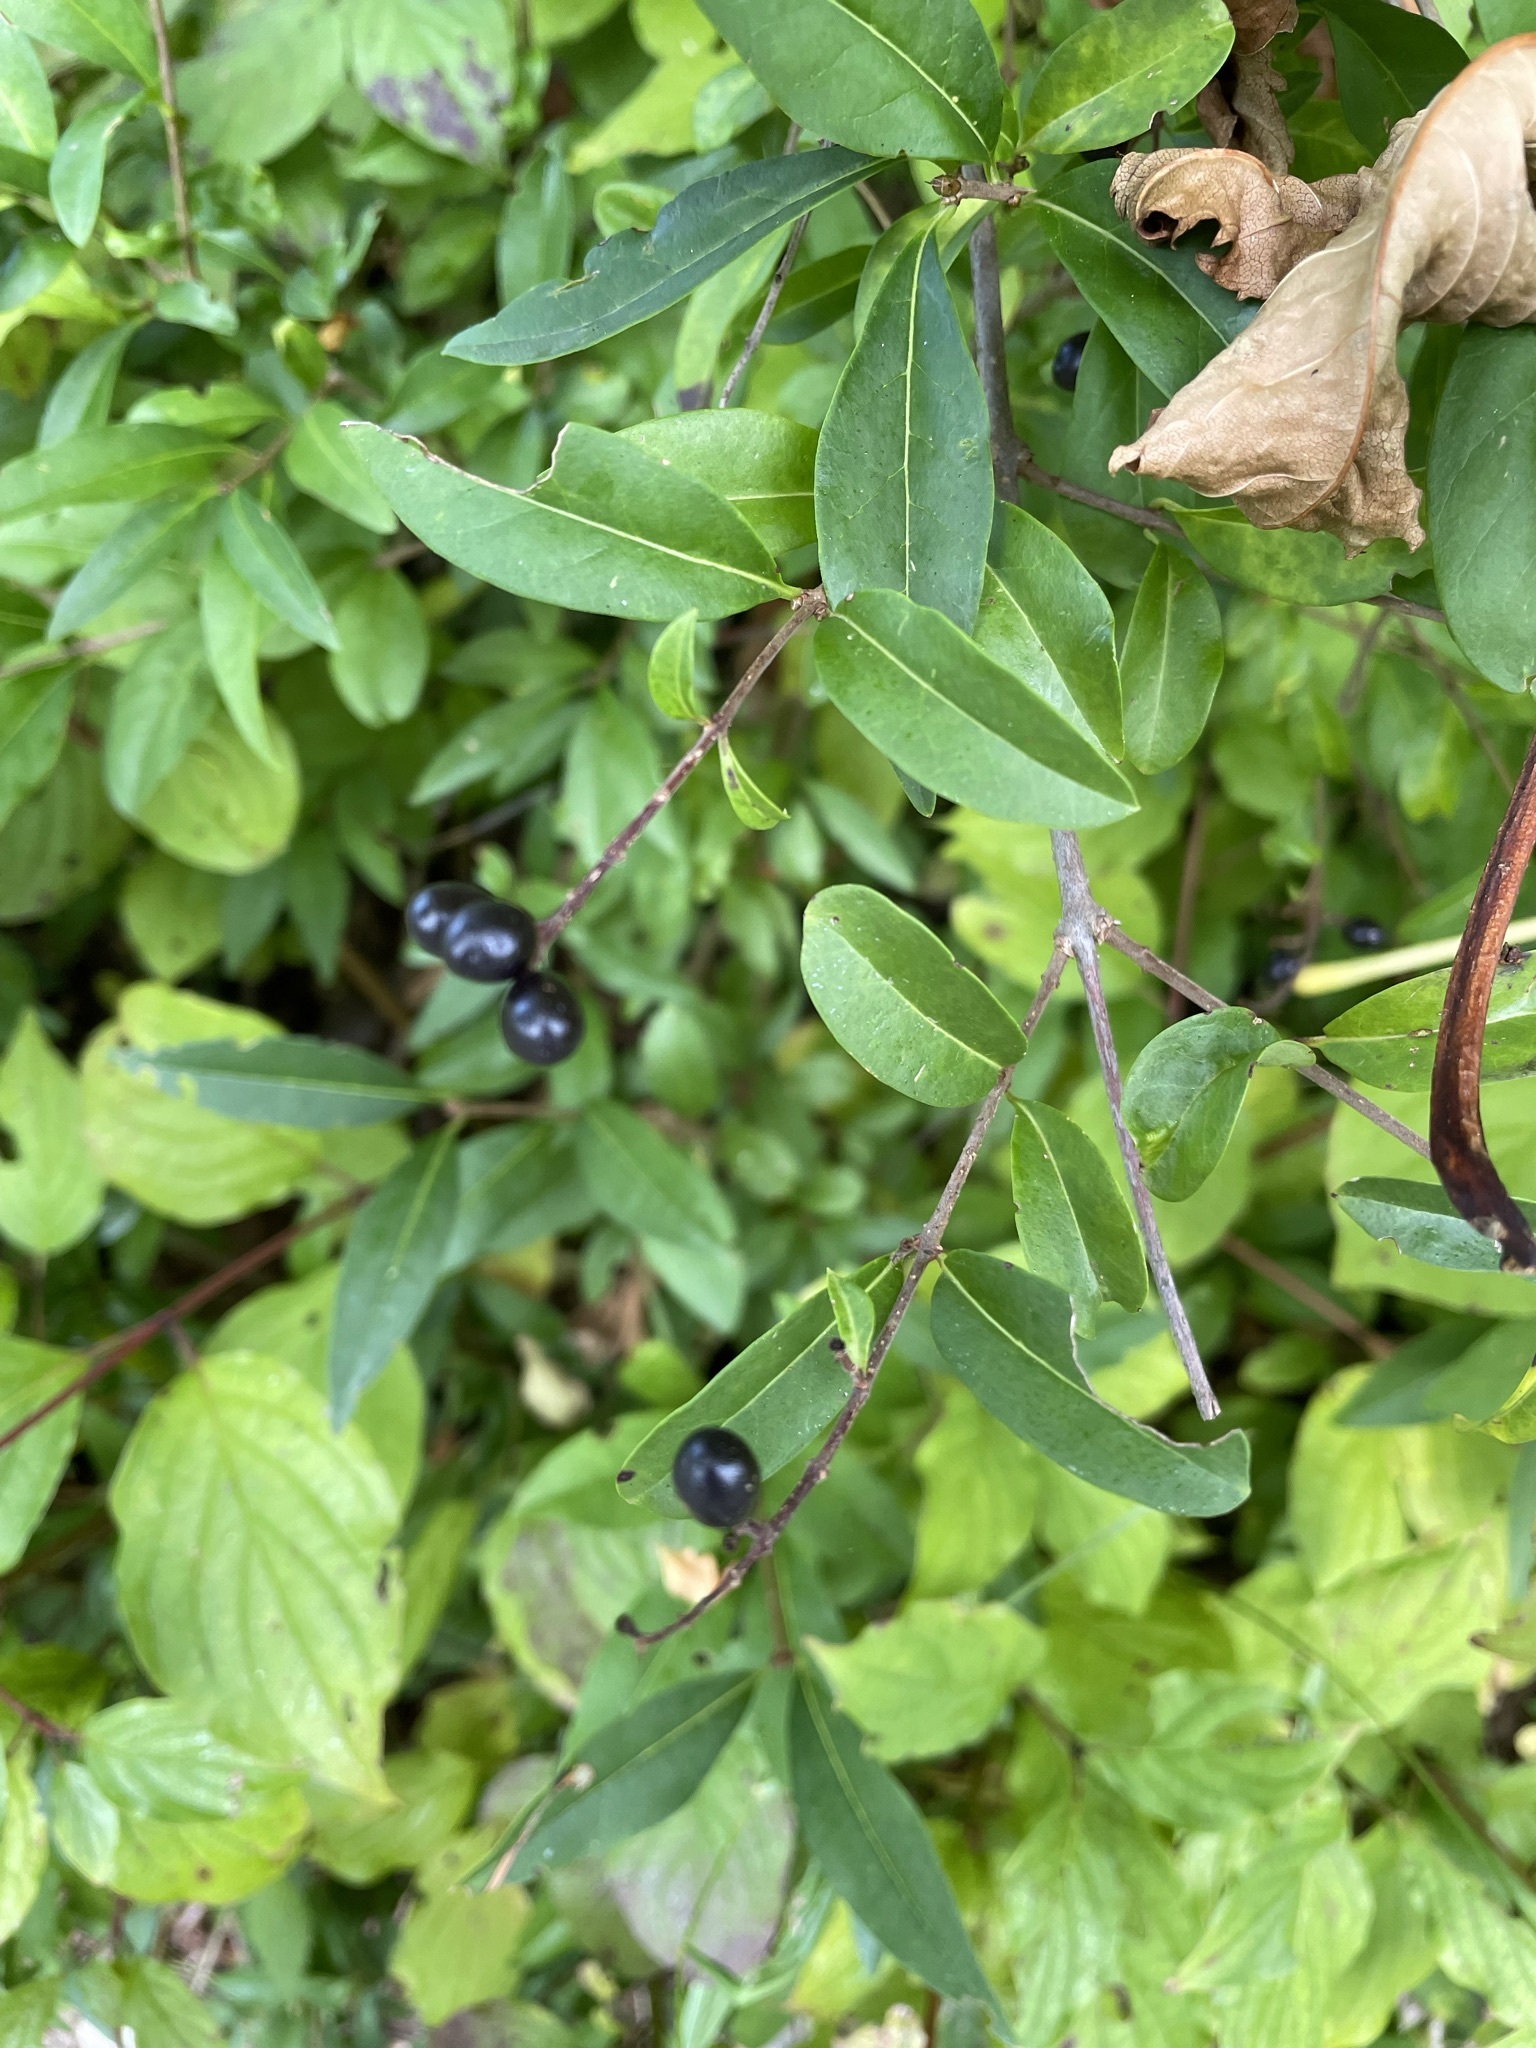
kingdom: Plantae
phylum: Tracheophyta
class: Magnoliopsida
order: Lamiales
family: Oleaceae
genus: Ligustrum
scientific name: Ligustrum vulgare
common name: Wild privet
